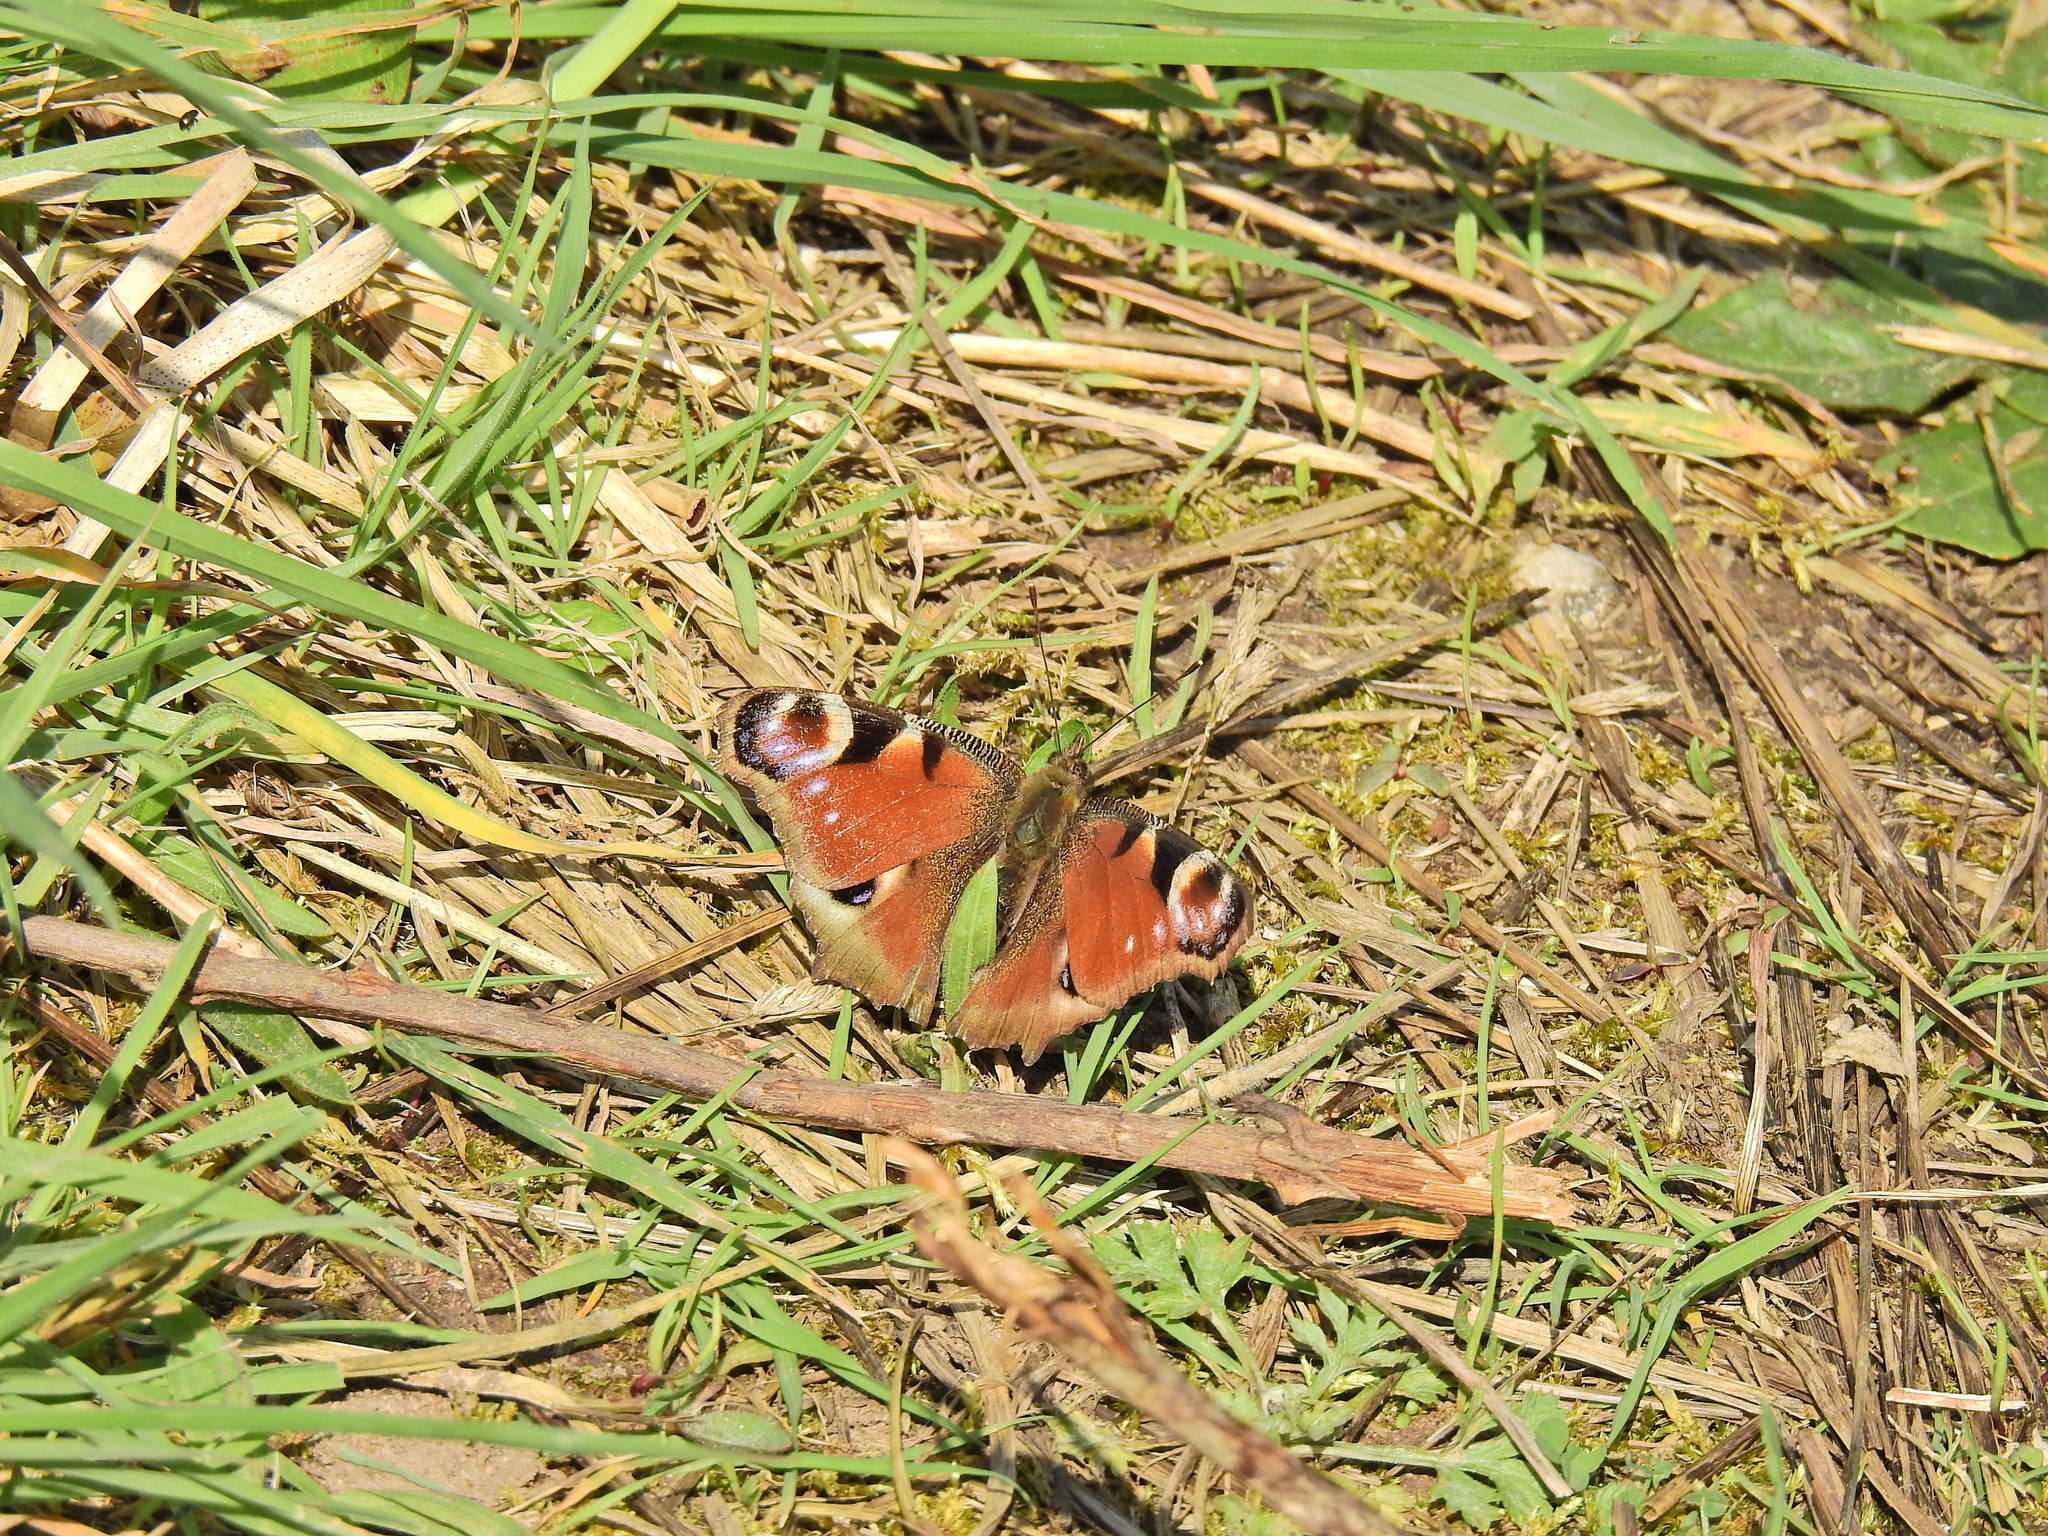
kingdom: Animalia
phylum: Arthropoda
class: Insecta
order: Lepidoptera
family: Nymphalidae
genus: Aglais
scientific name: Aglais io
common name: Peacock
